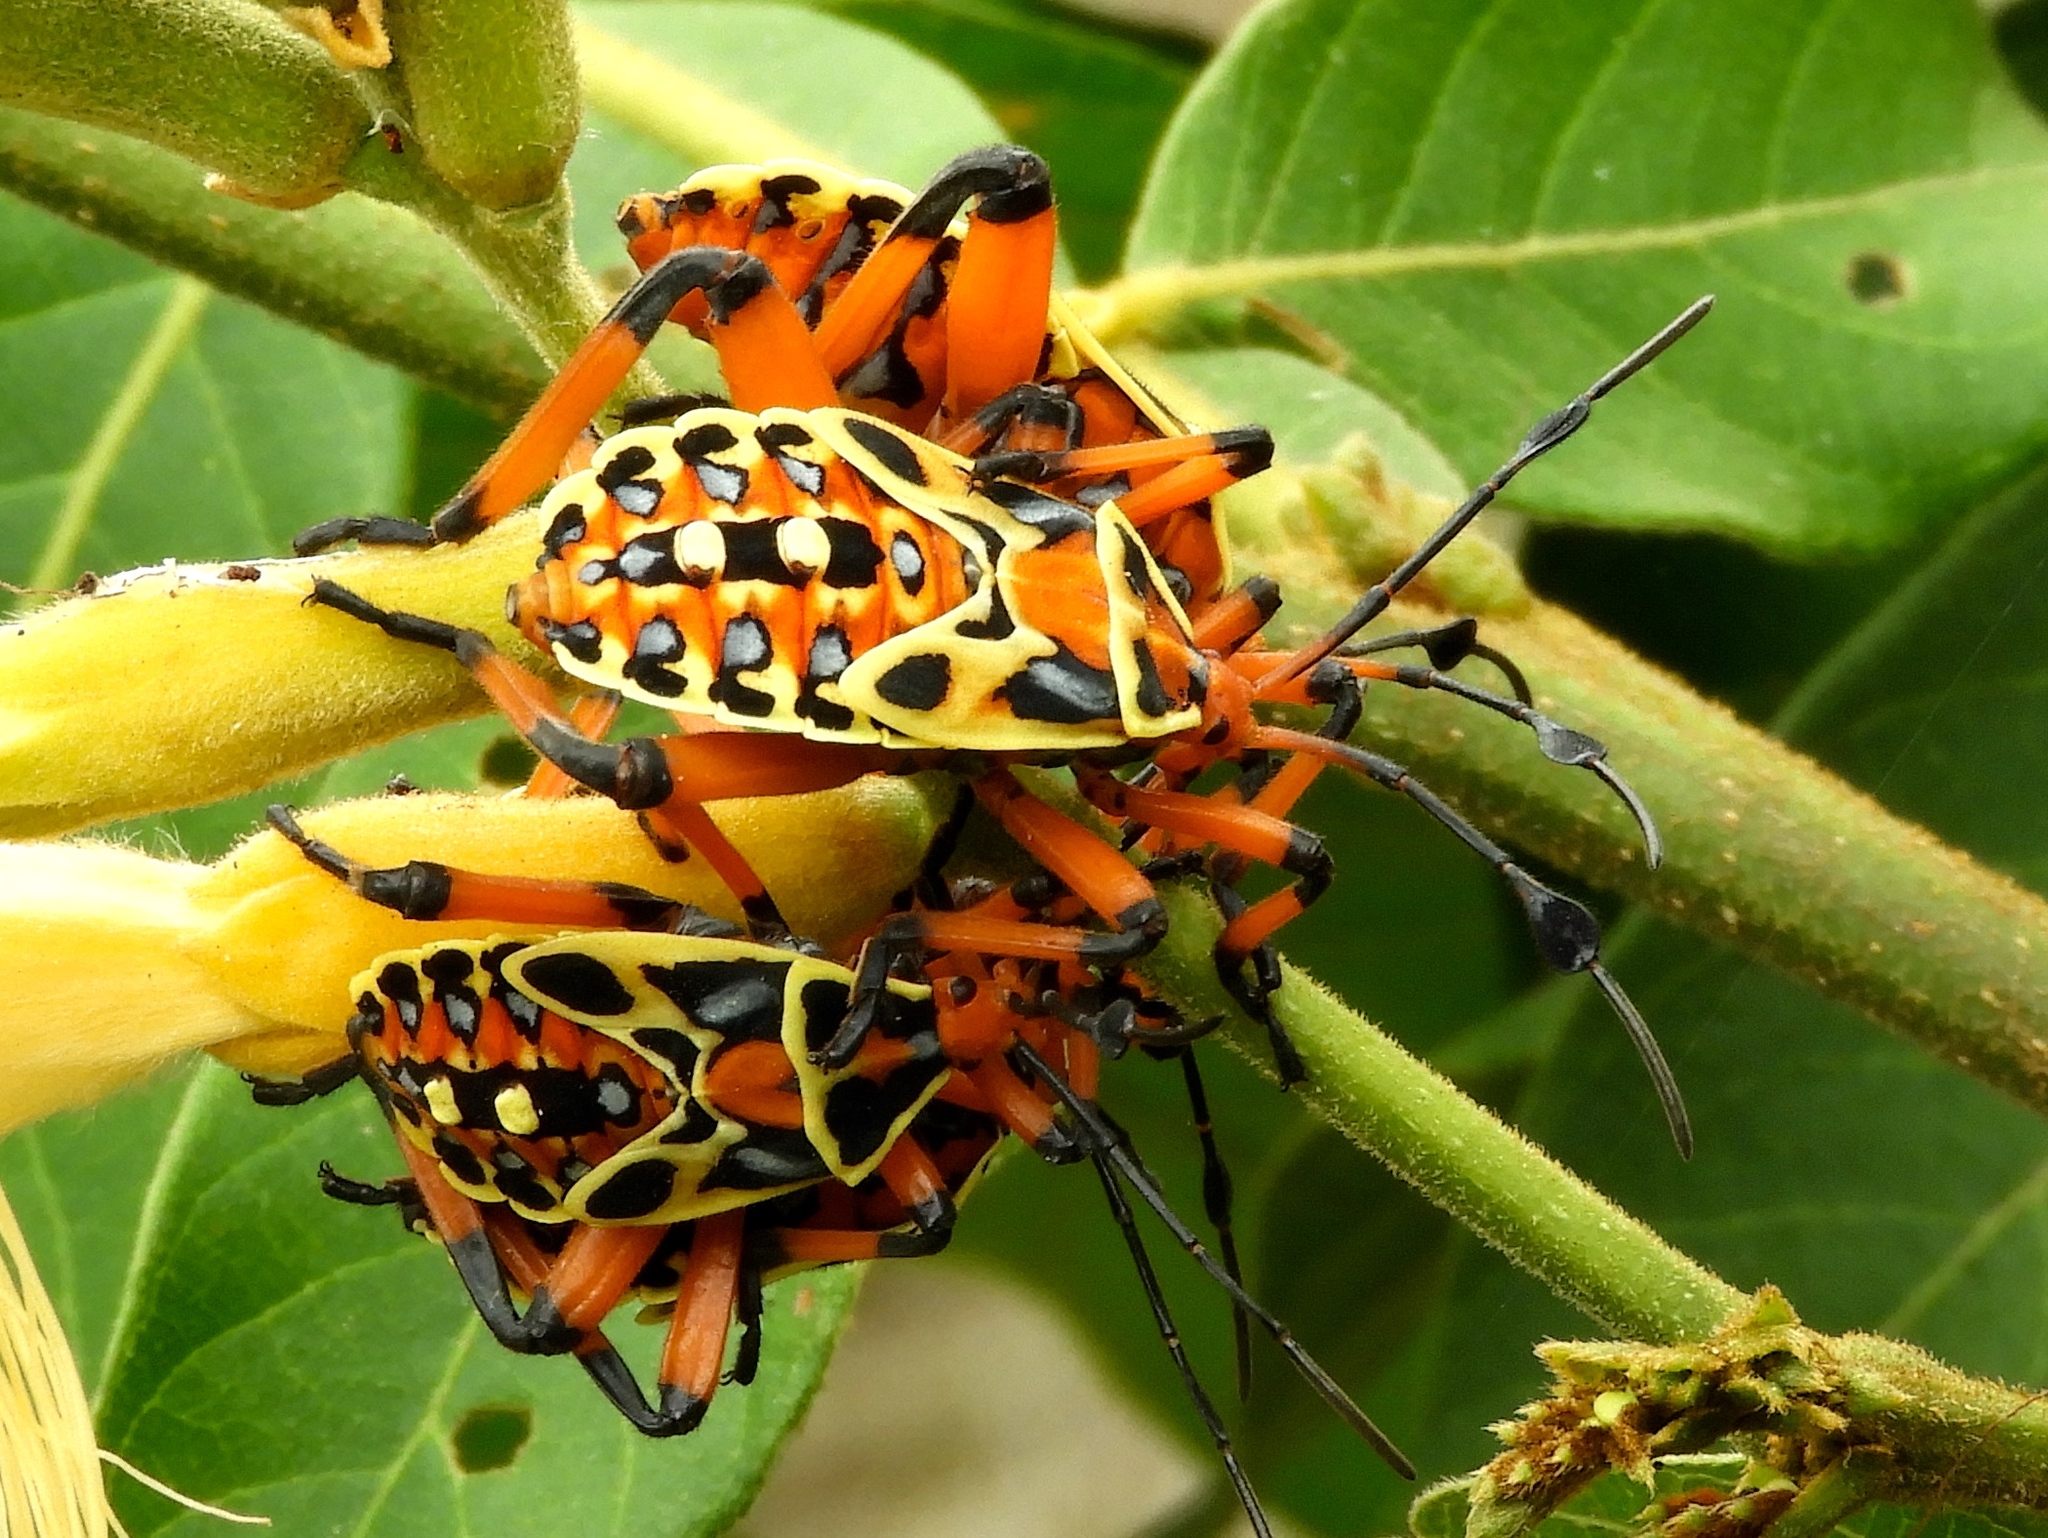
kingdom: Animalia
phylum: Arthropoda
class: Insecta
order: Hemiptera
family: Coreidae
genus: Pachylis
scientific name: Pachylis nervosus
